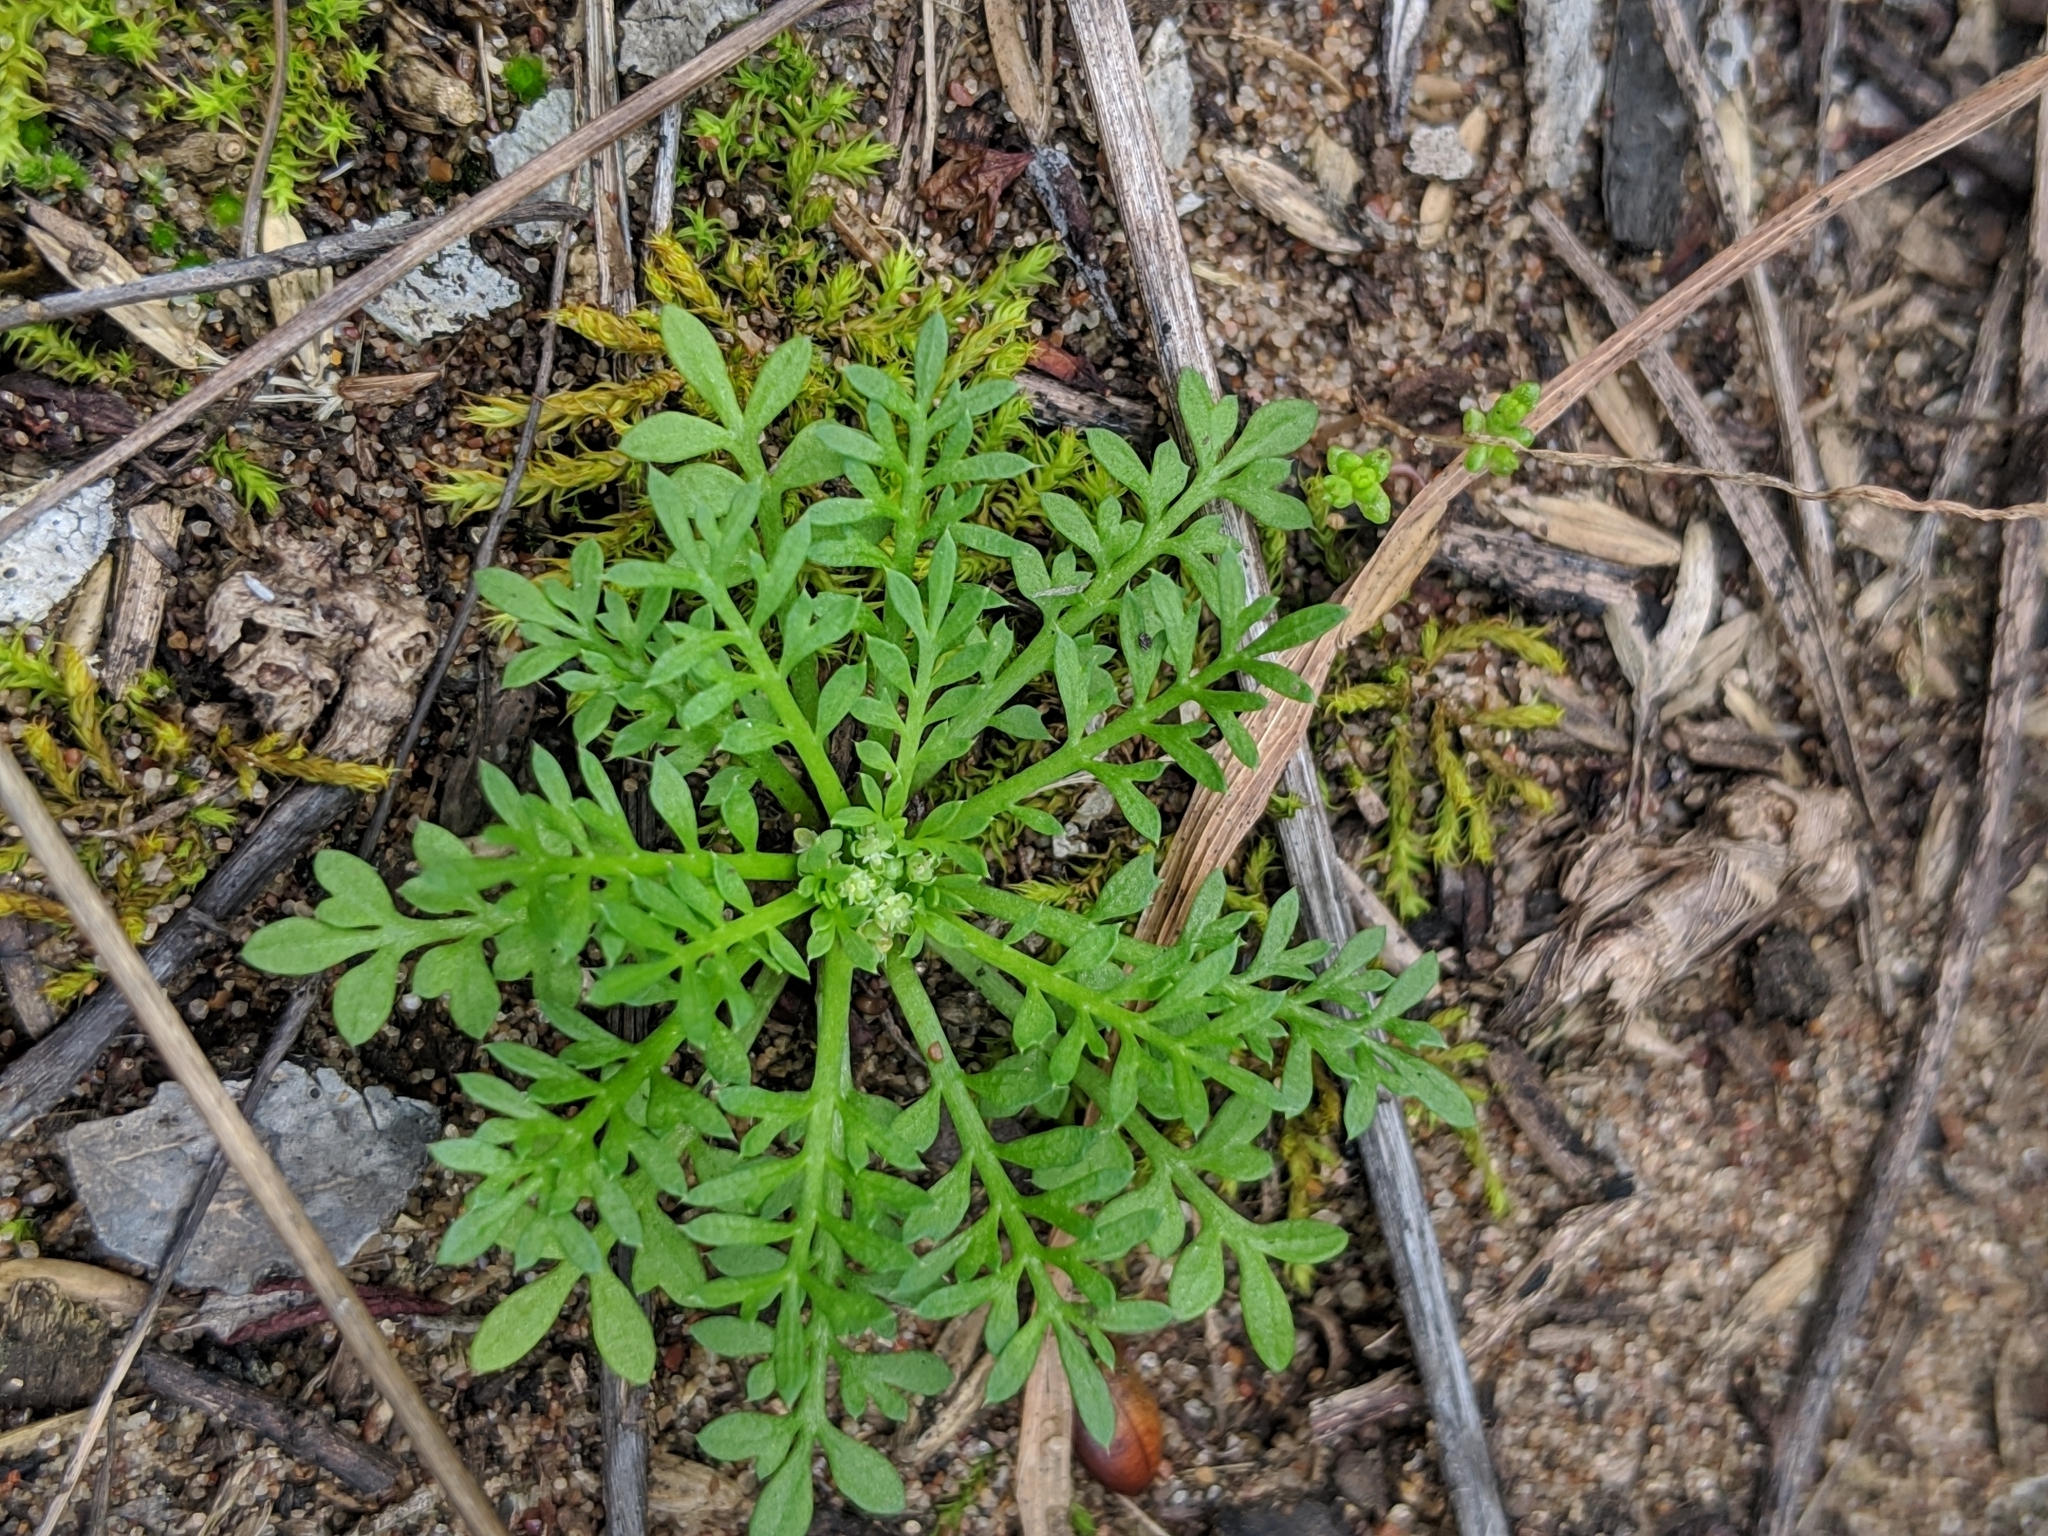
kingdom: Plantae
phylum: Tracheophyta
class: Magnoliopsida
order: Brassicales
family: Brassicaceae
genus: Lepidium
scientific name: Lepidium didymum
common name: Lesser swinecress
